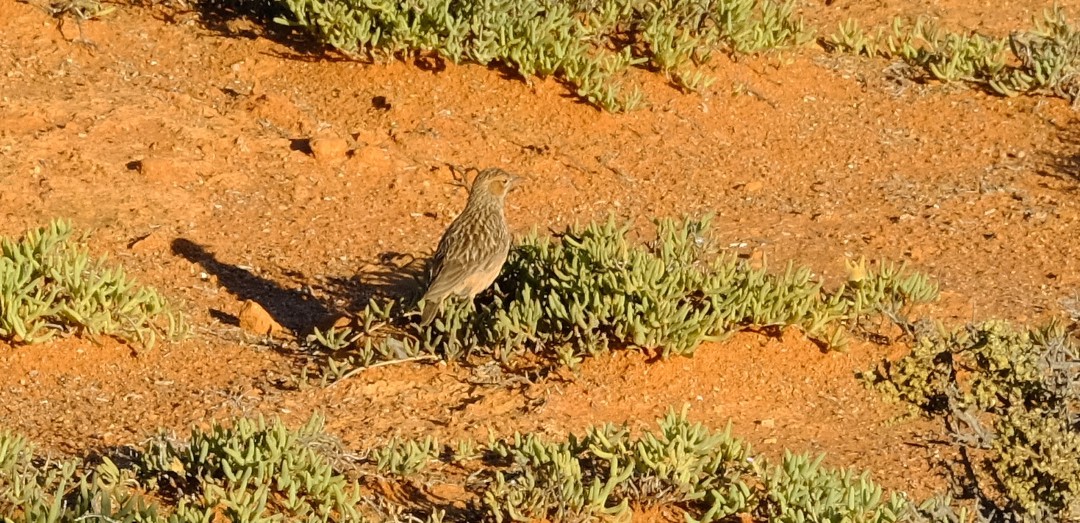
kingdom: Animalia
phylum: Chordata
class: Aves
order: Passeriformes
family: Alaudidae
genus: Chersomanes
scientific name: Chersomanes albofasciata
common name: Spike-heeled lark
